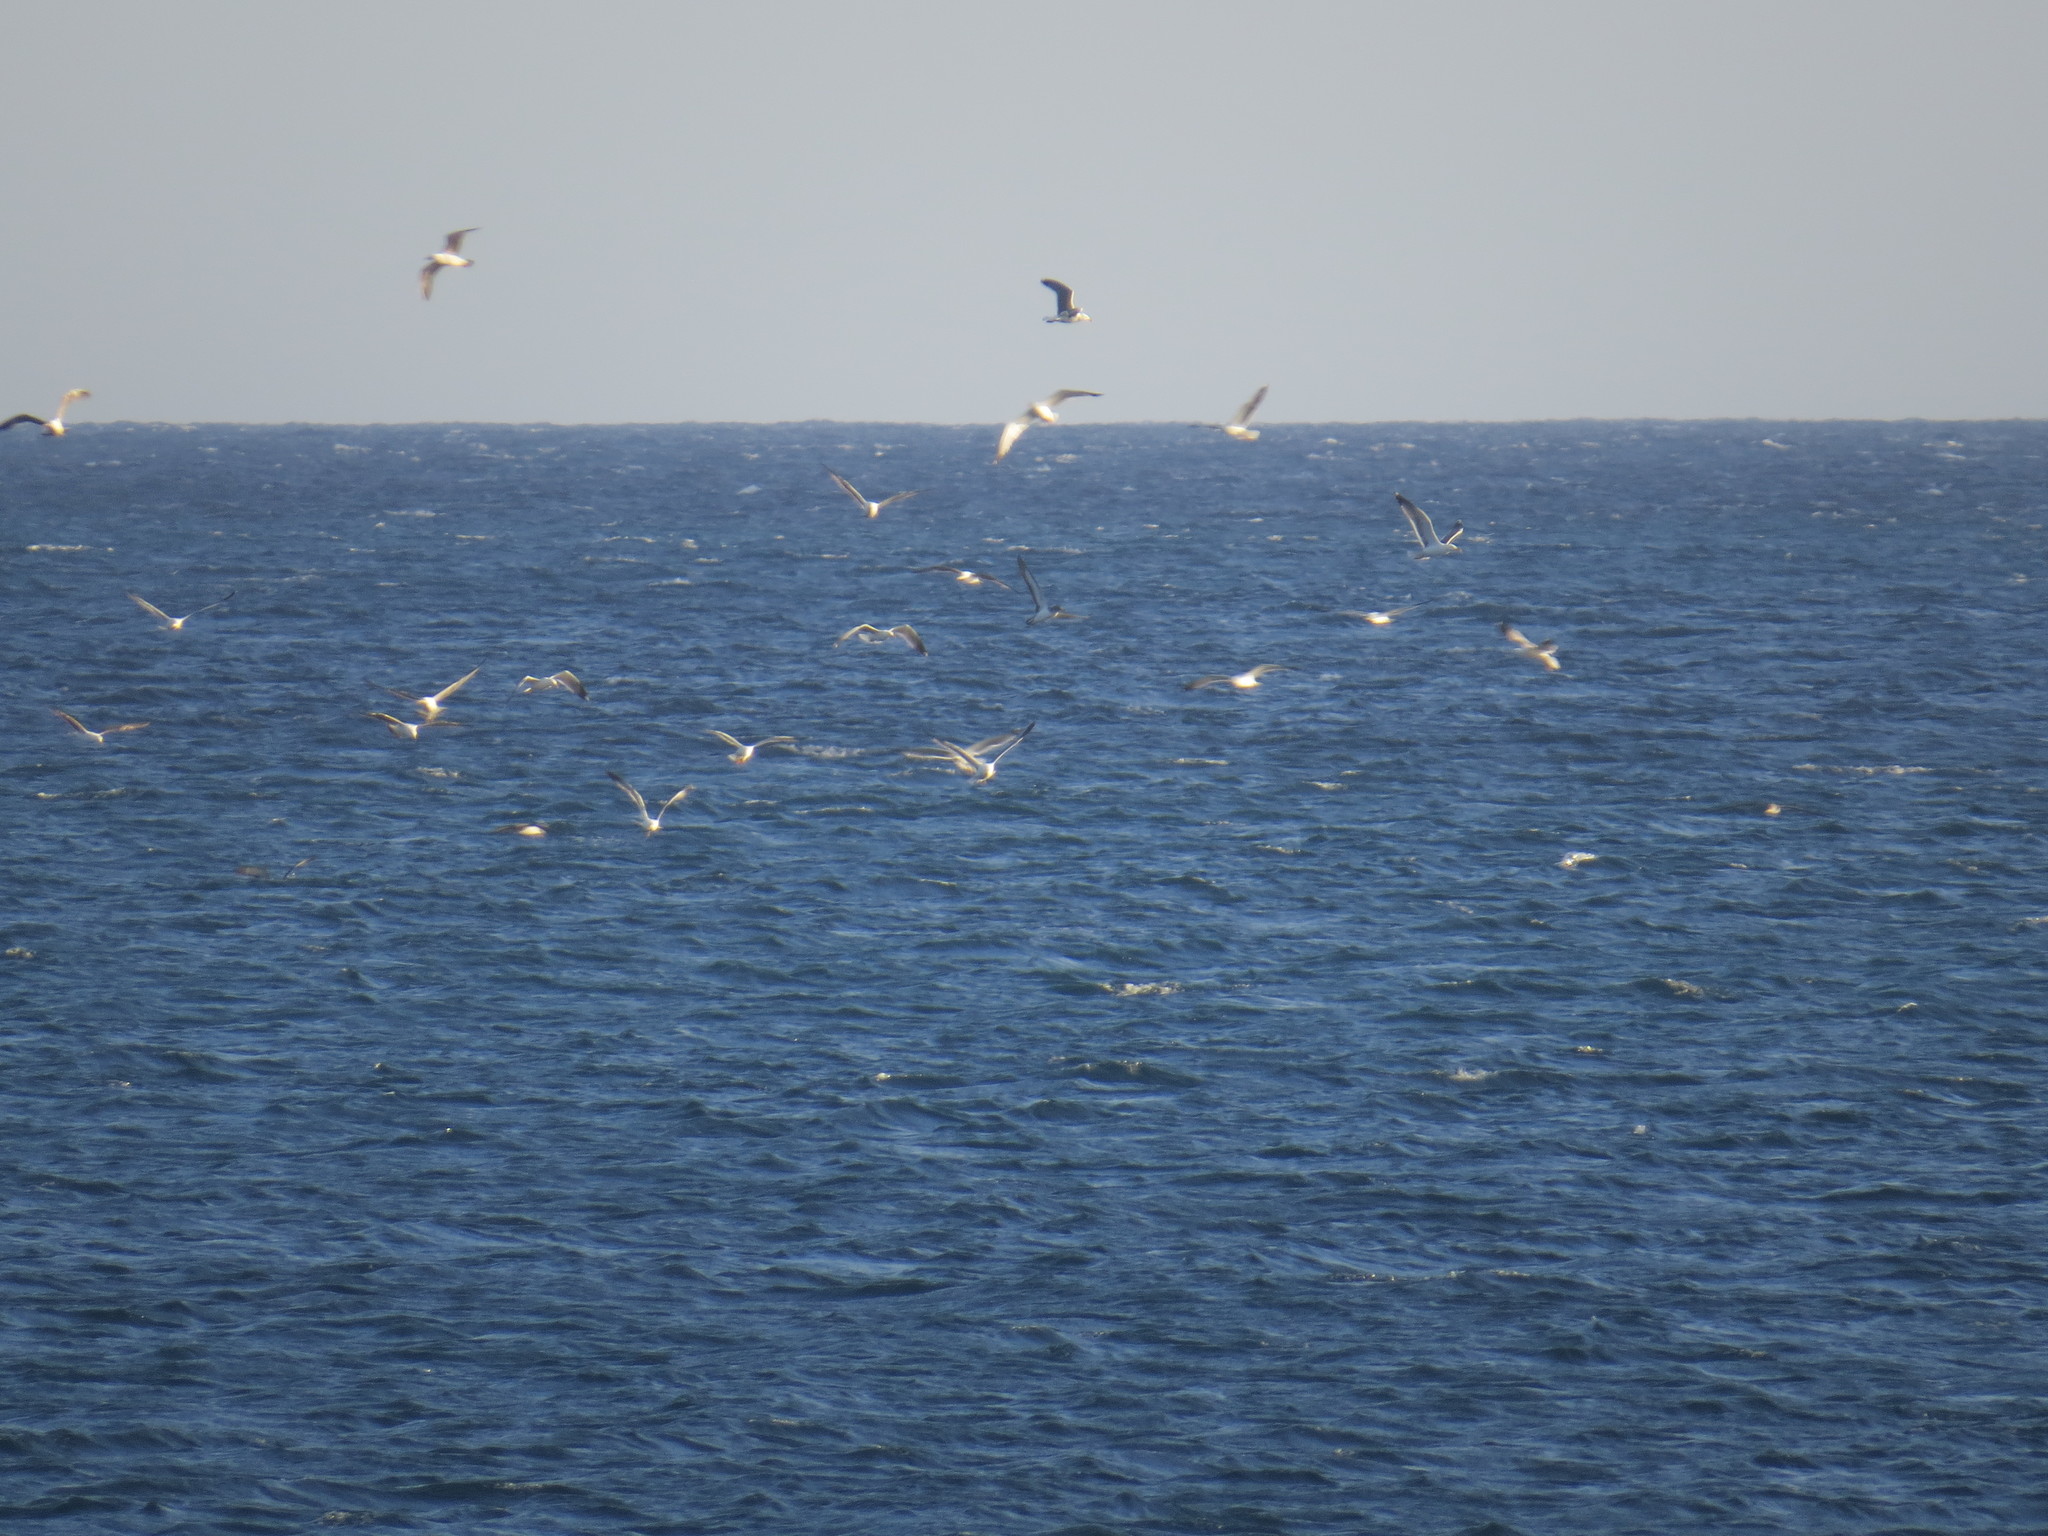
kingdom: Animalia
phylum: Chordata
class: Aves
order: Procellariiformes
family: Procellariidae
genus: Calonectris
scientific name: Calonectris diomedea
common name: Cory's shearwater
